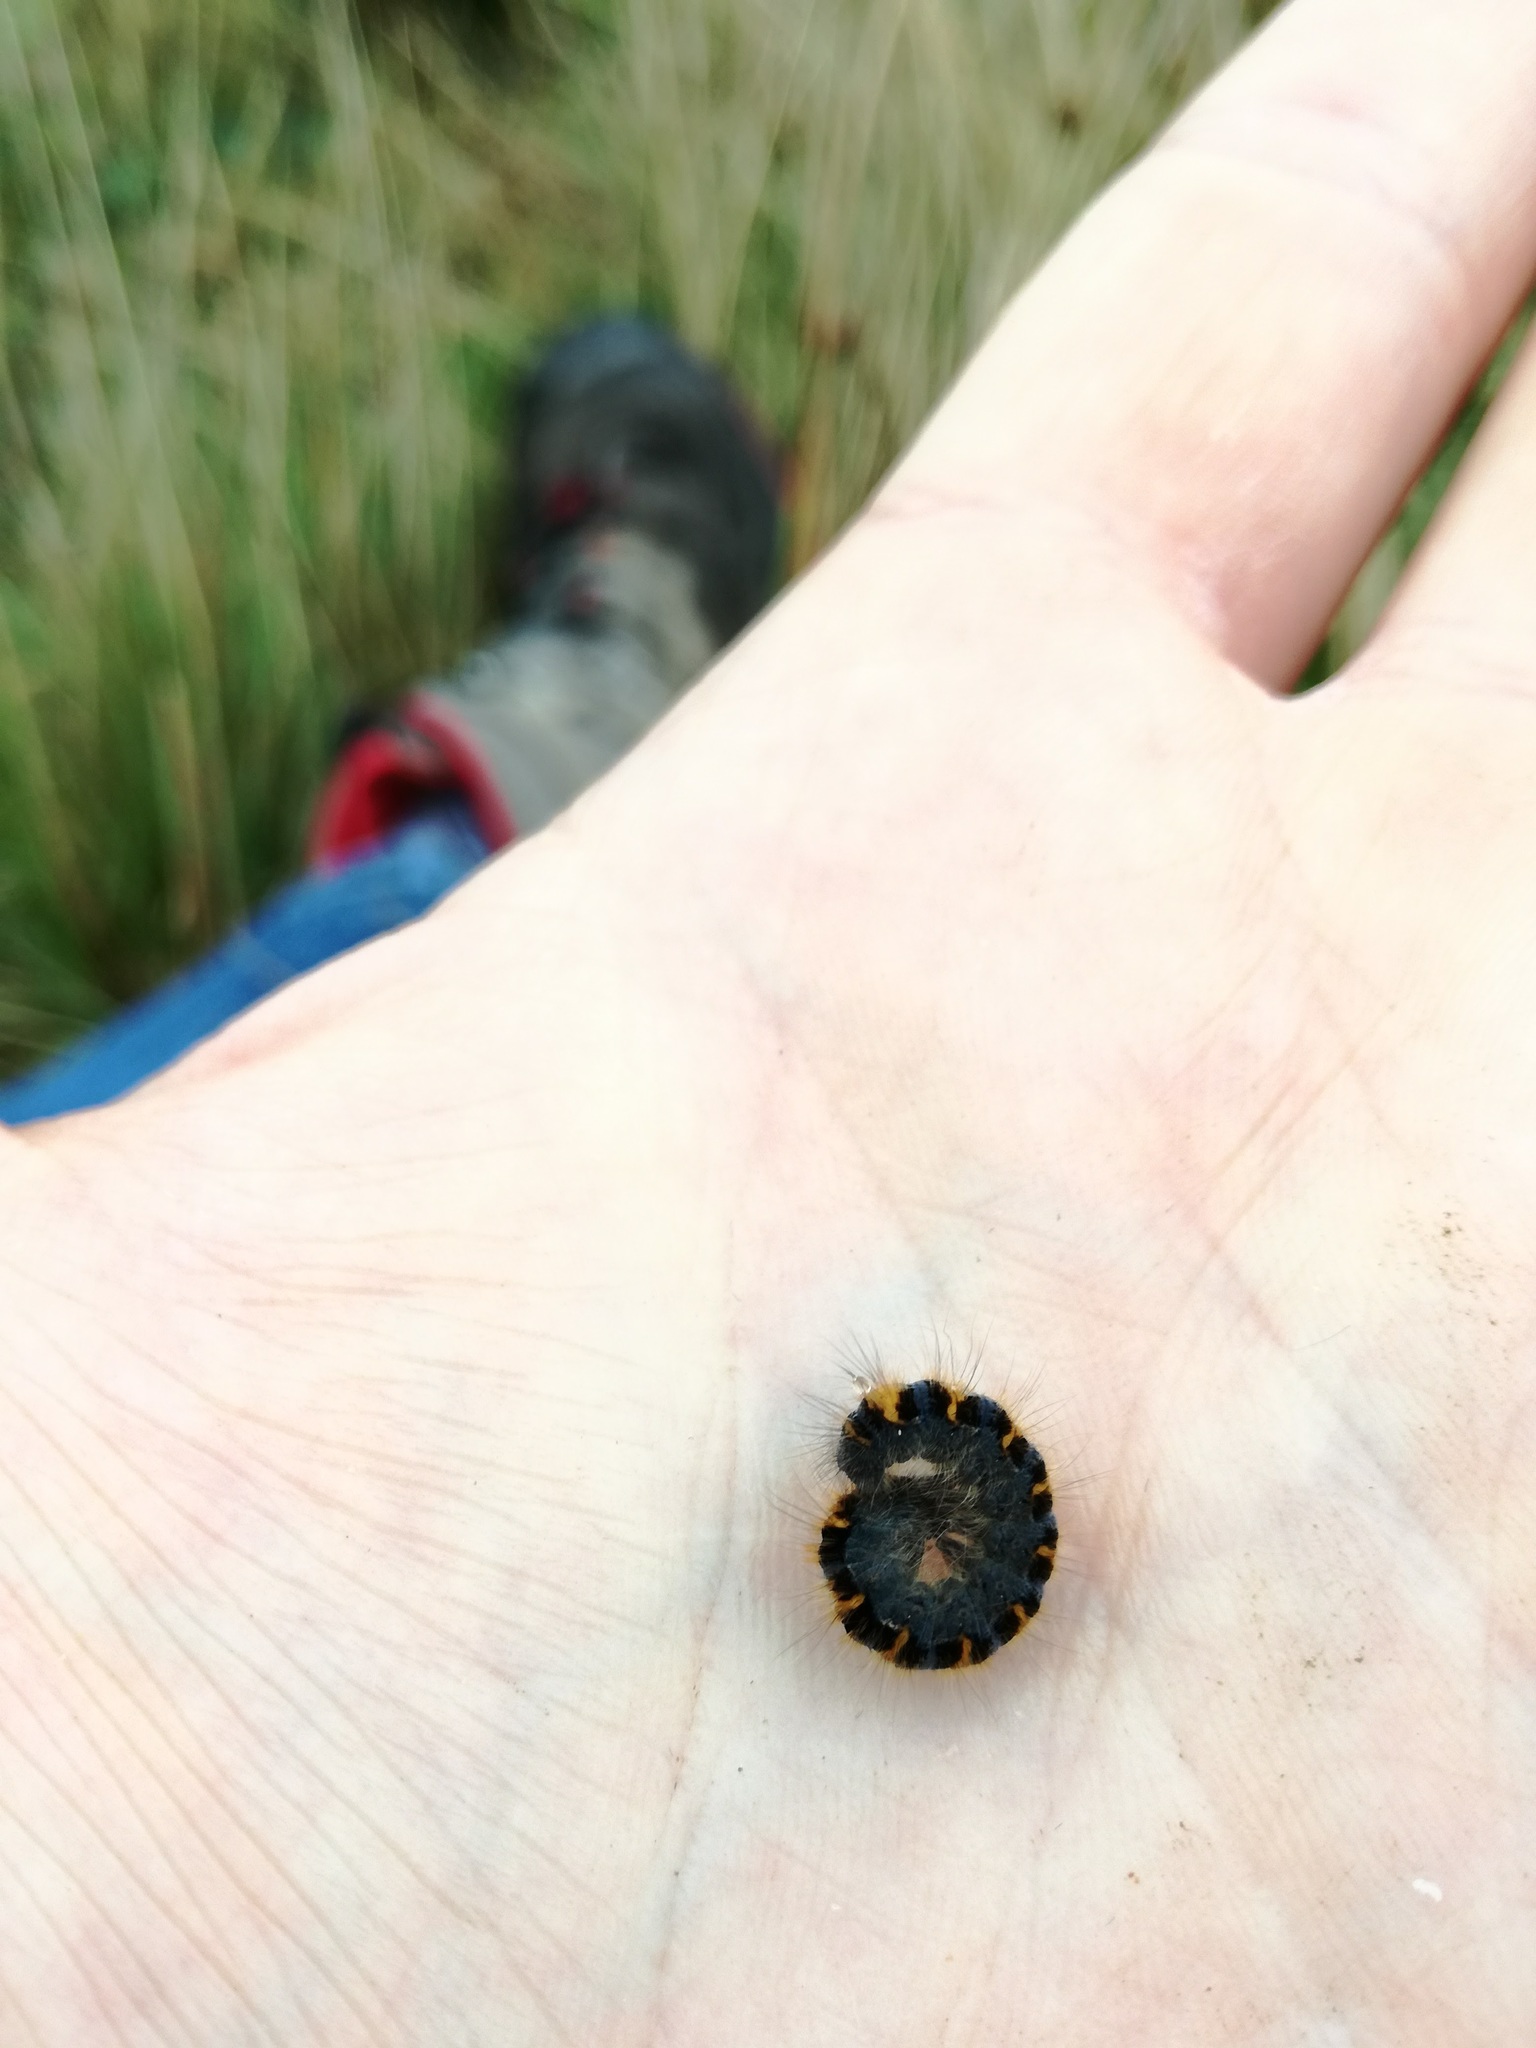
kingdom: Animalia
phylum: Arthropoda
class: Insecta
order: Lepidoptera
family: Lasiocampidae
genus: Macrothylacia
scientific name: Macrothylacia rubi
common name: Fox moth
